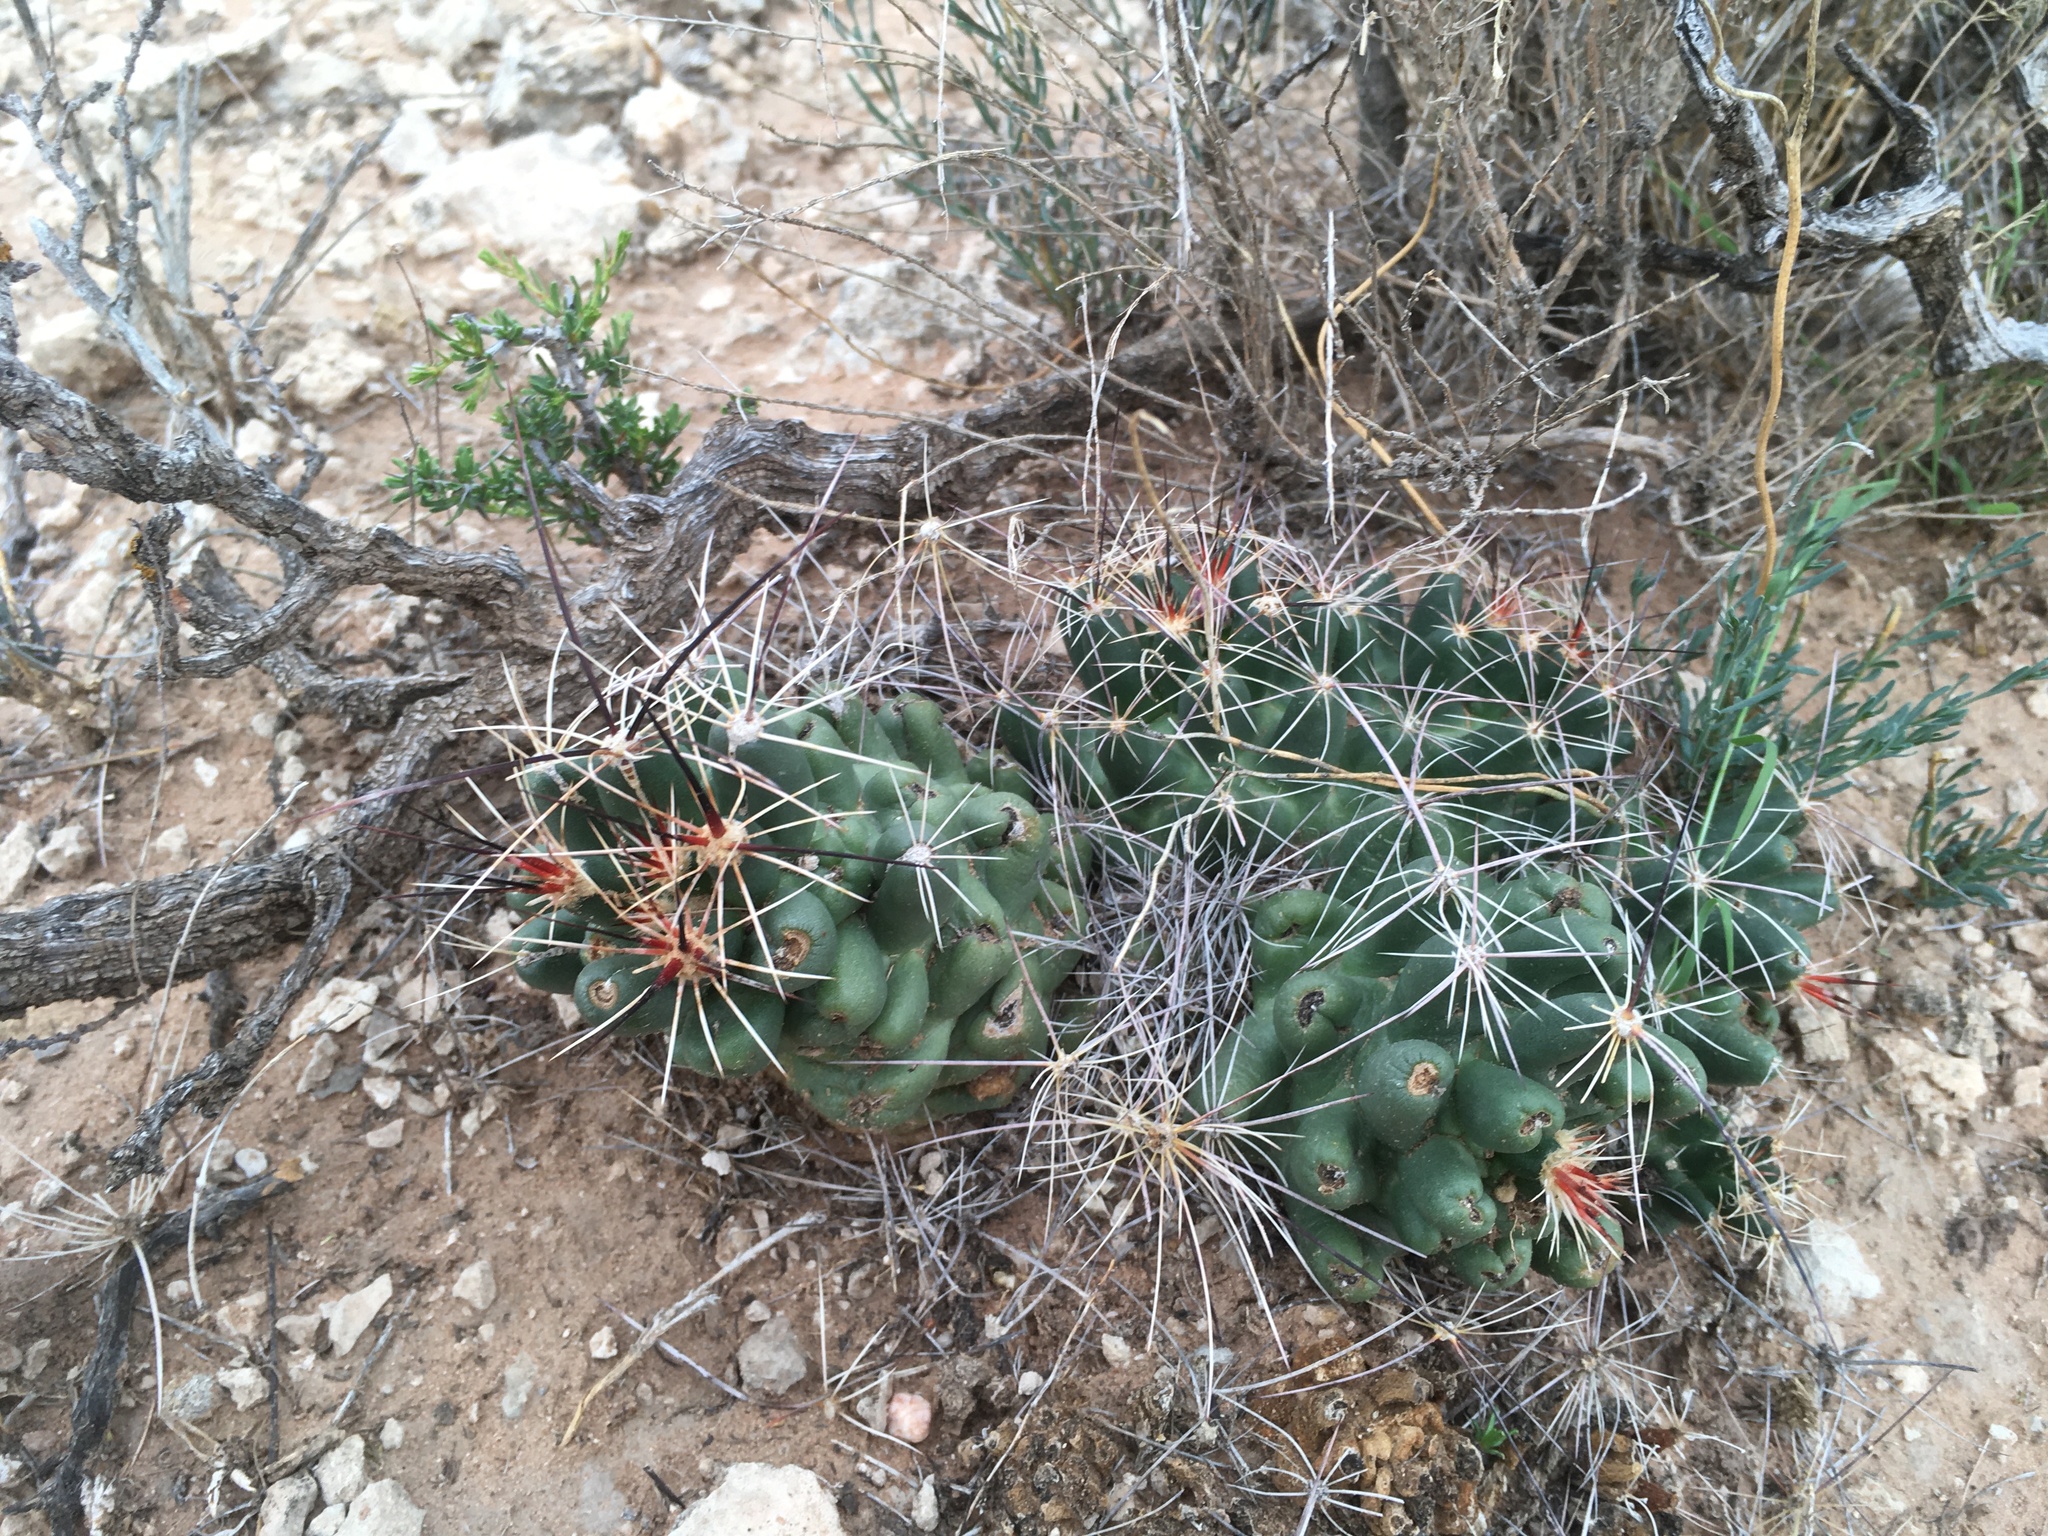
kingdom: Plantae
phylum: Tracheophyta
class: Magnoliopsida
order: Caryophyllales
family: Cactaceae
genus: Coryphantha
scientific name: Coryphantha macromeris
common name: Nipple beehive cactus
